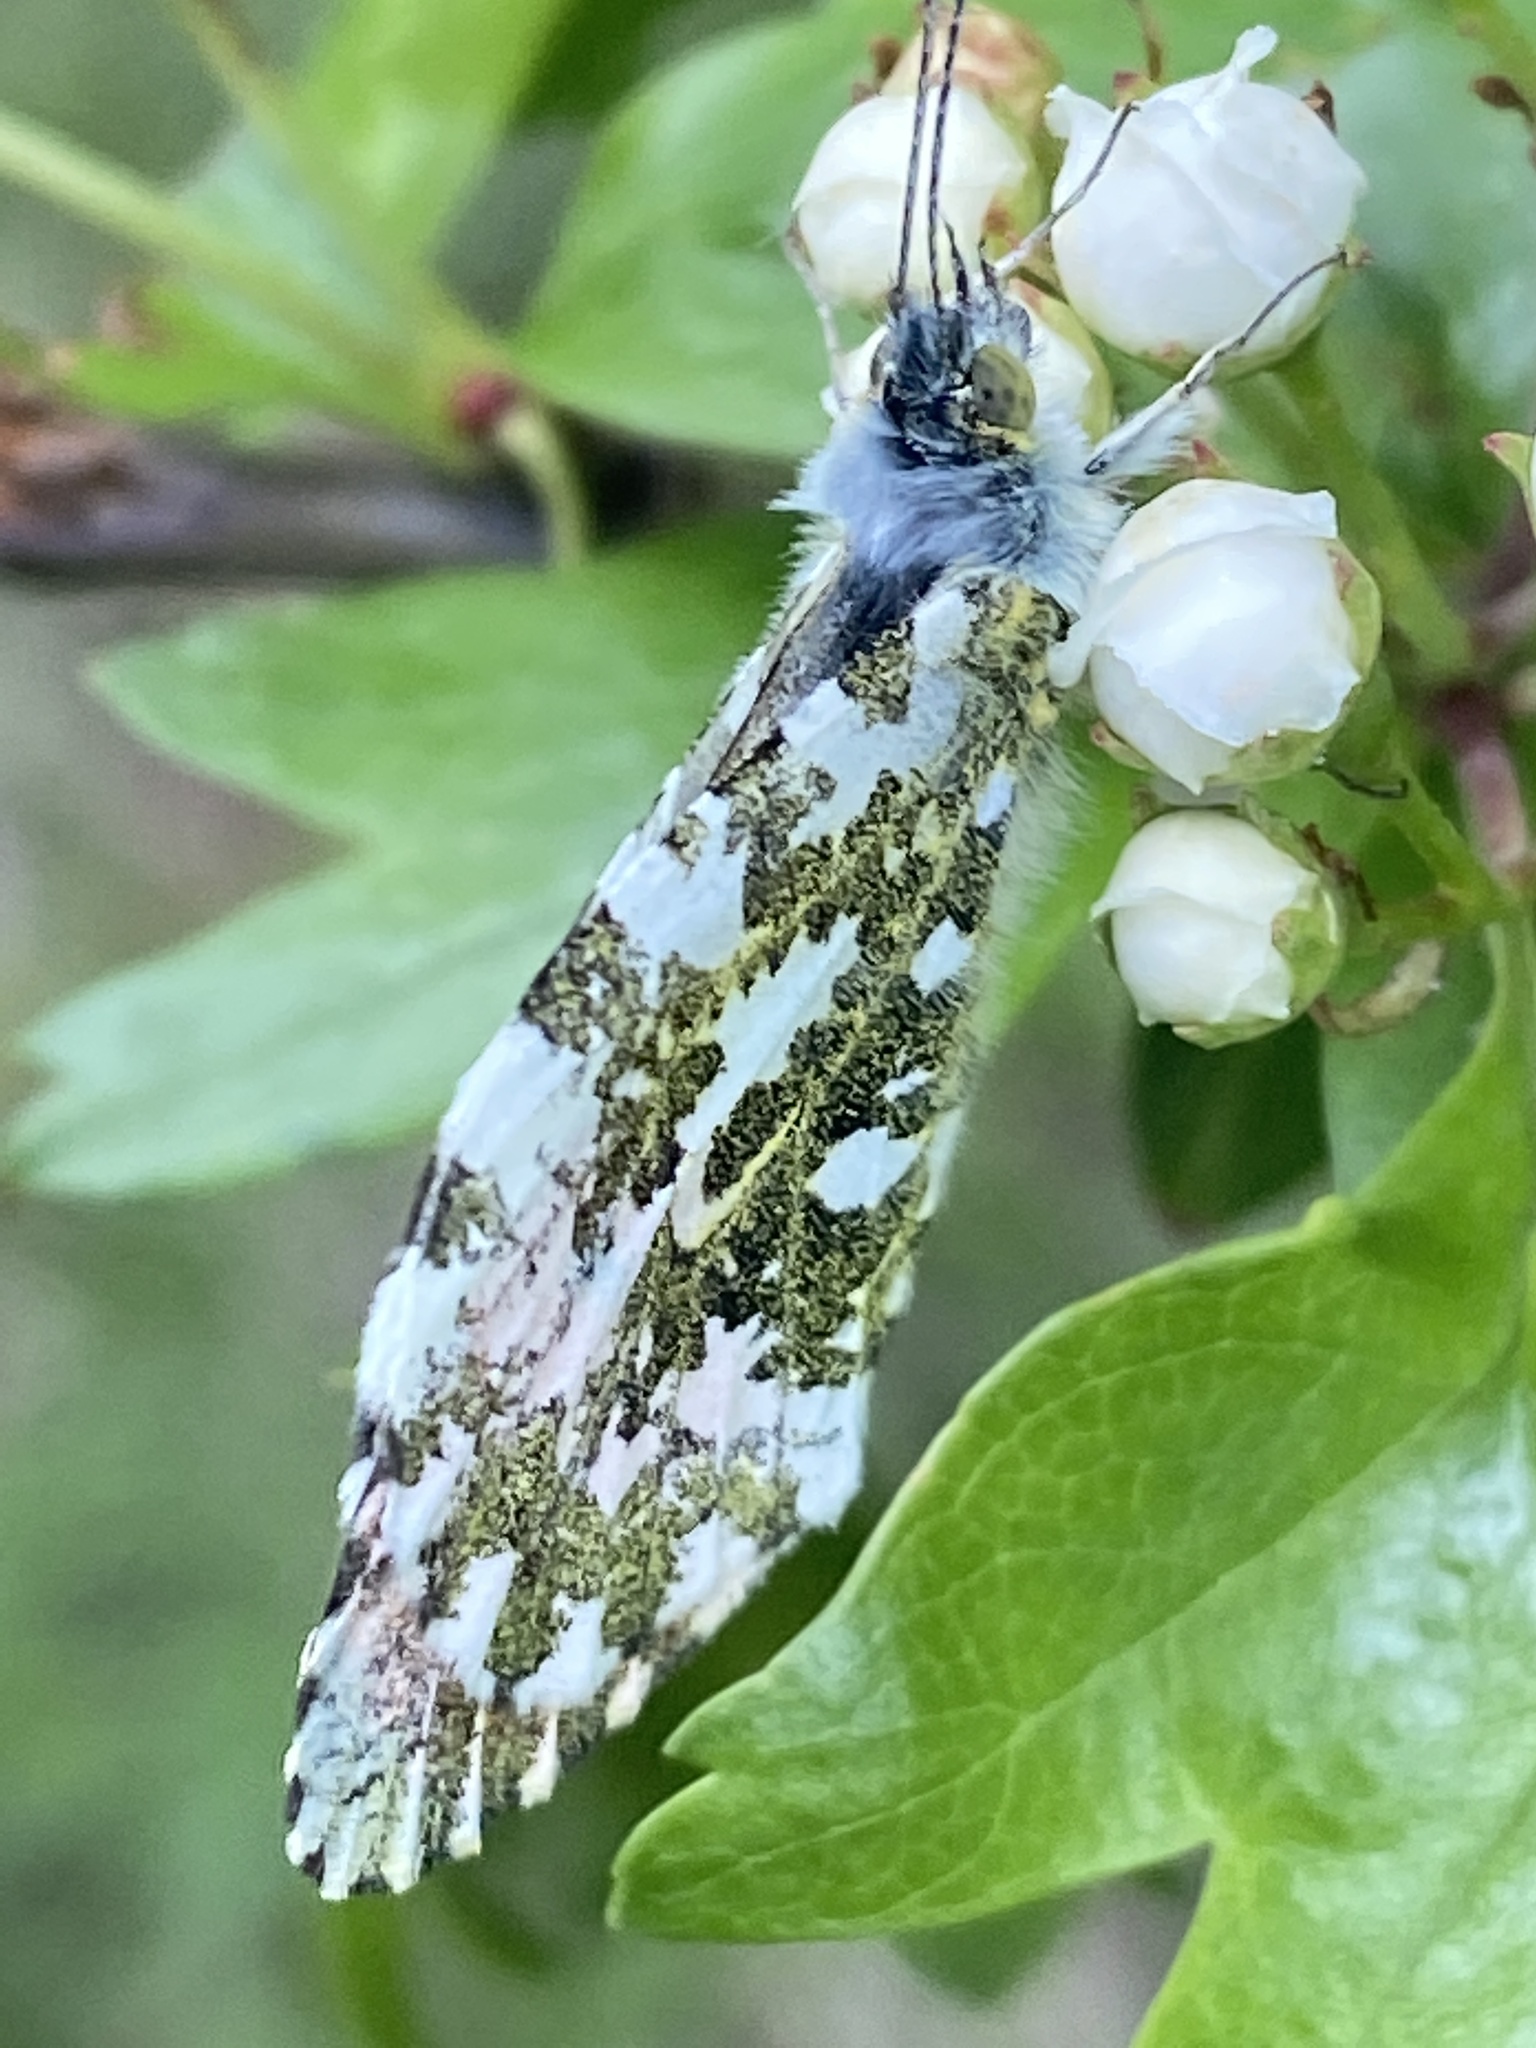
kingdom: Animalia
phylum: Arthropoda
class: Insecta
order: Lepidoptera
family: Pieridae
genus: Anthocharis
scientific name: Anthocharis cardamines
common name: Orange-tip
